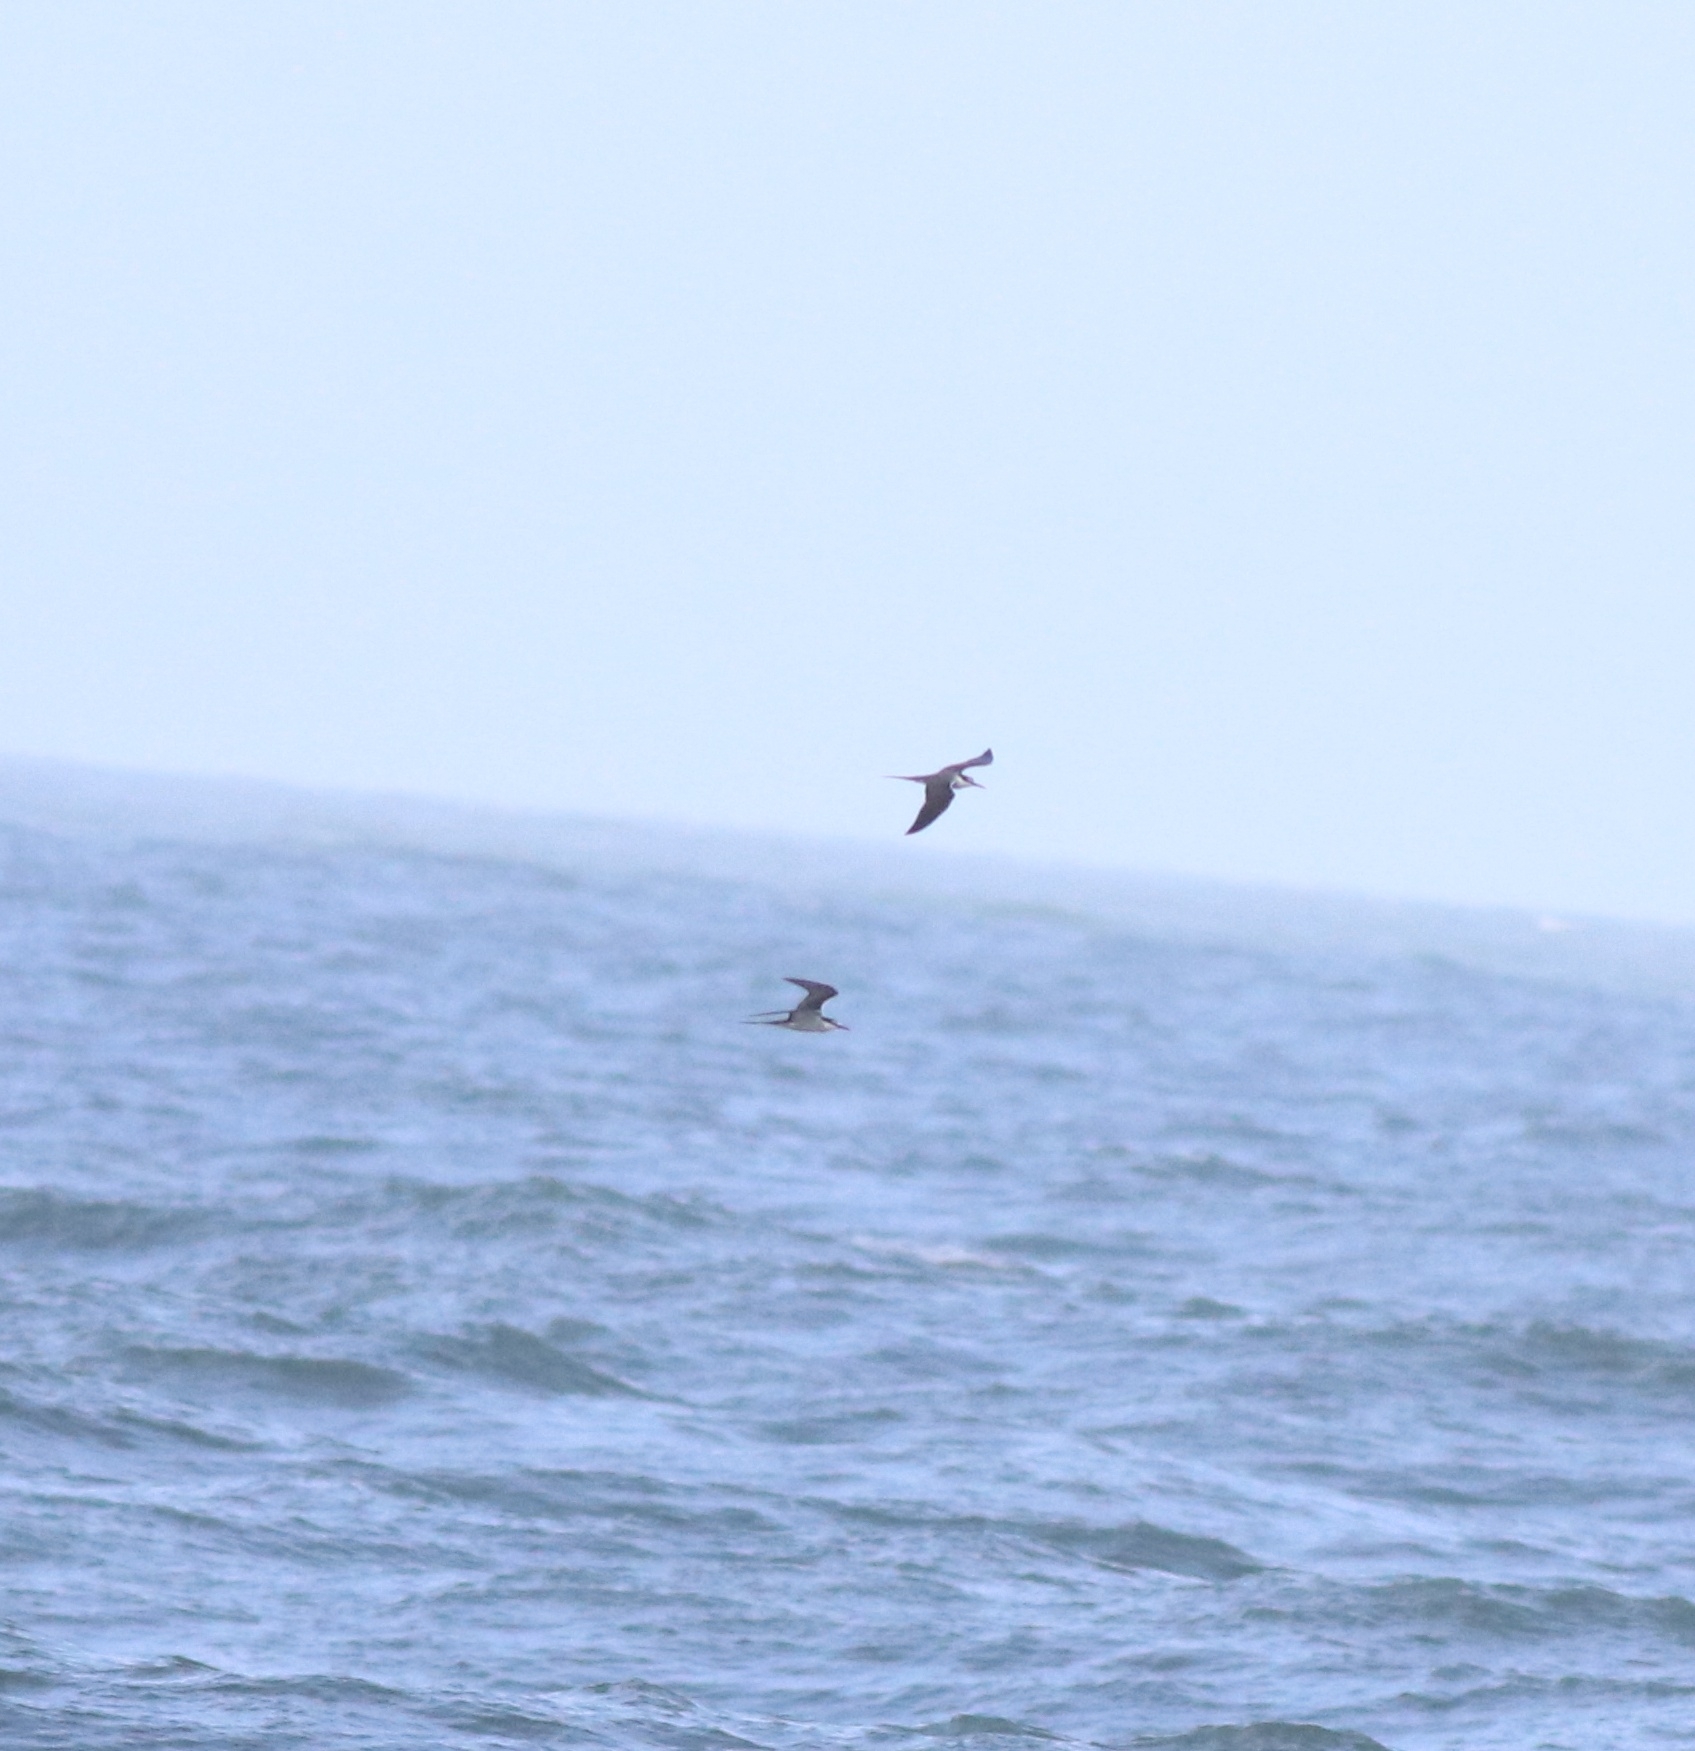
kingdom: Animalia
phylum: Chordata
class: Aves
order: Charadriiformes
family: Laridae
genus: Onychoprion
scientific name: Onychoprion anaethetus
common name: Bridled tern
